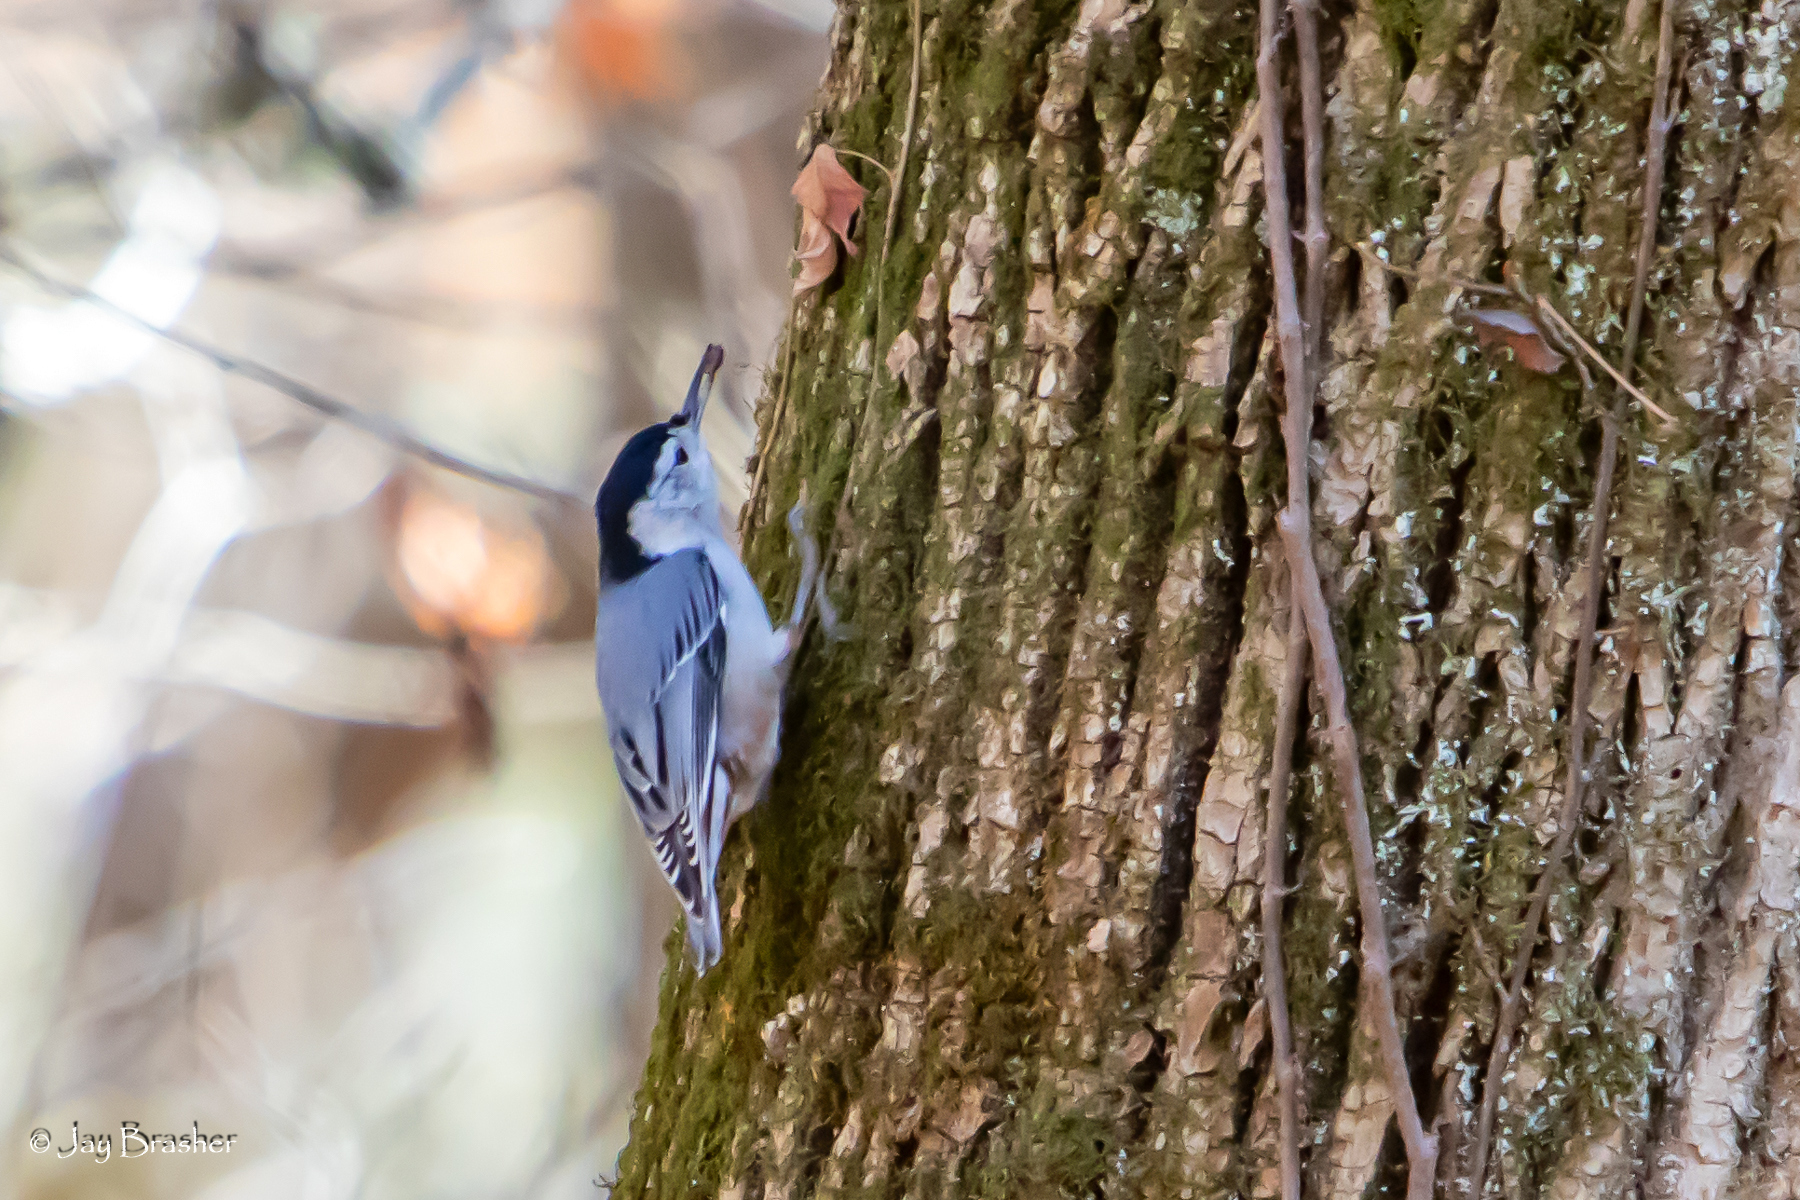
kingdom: Animalia
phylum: Chordata
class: Aves
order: Passeriformes
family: Sittidae
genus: Sitta
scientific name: Sitta carolinensis
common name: White-breasted nuthatch
